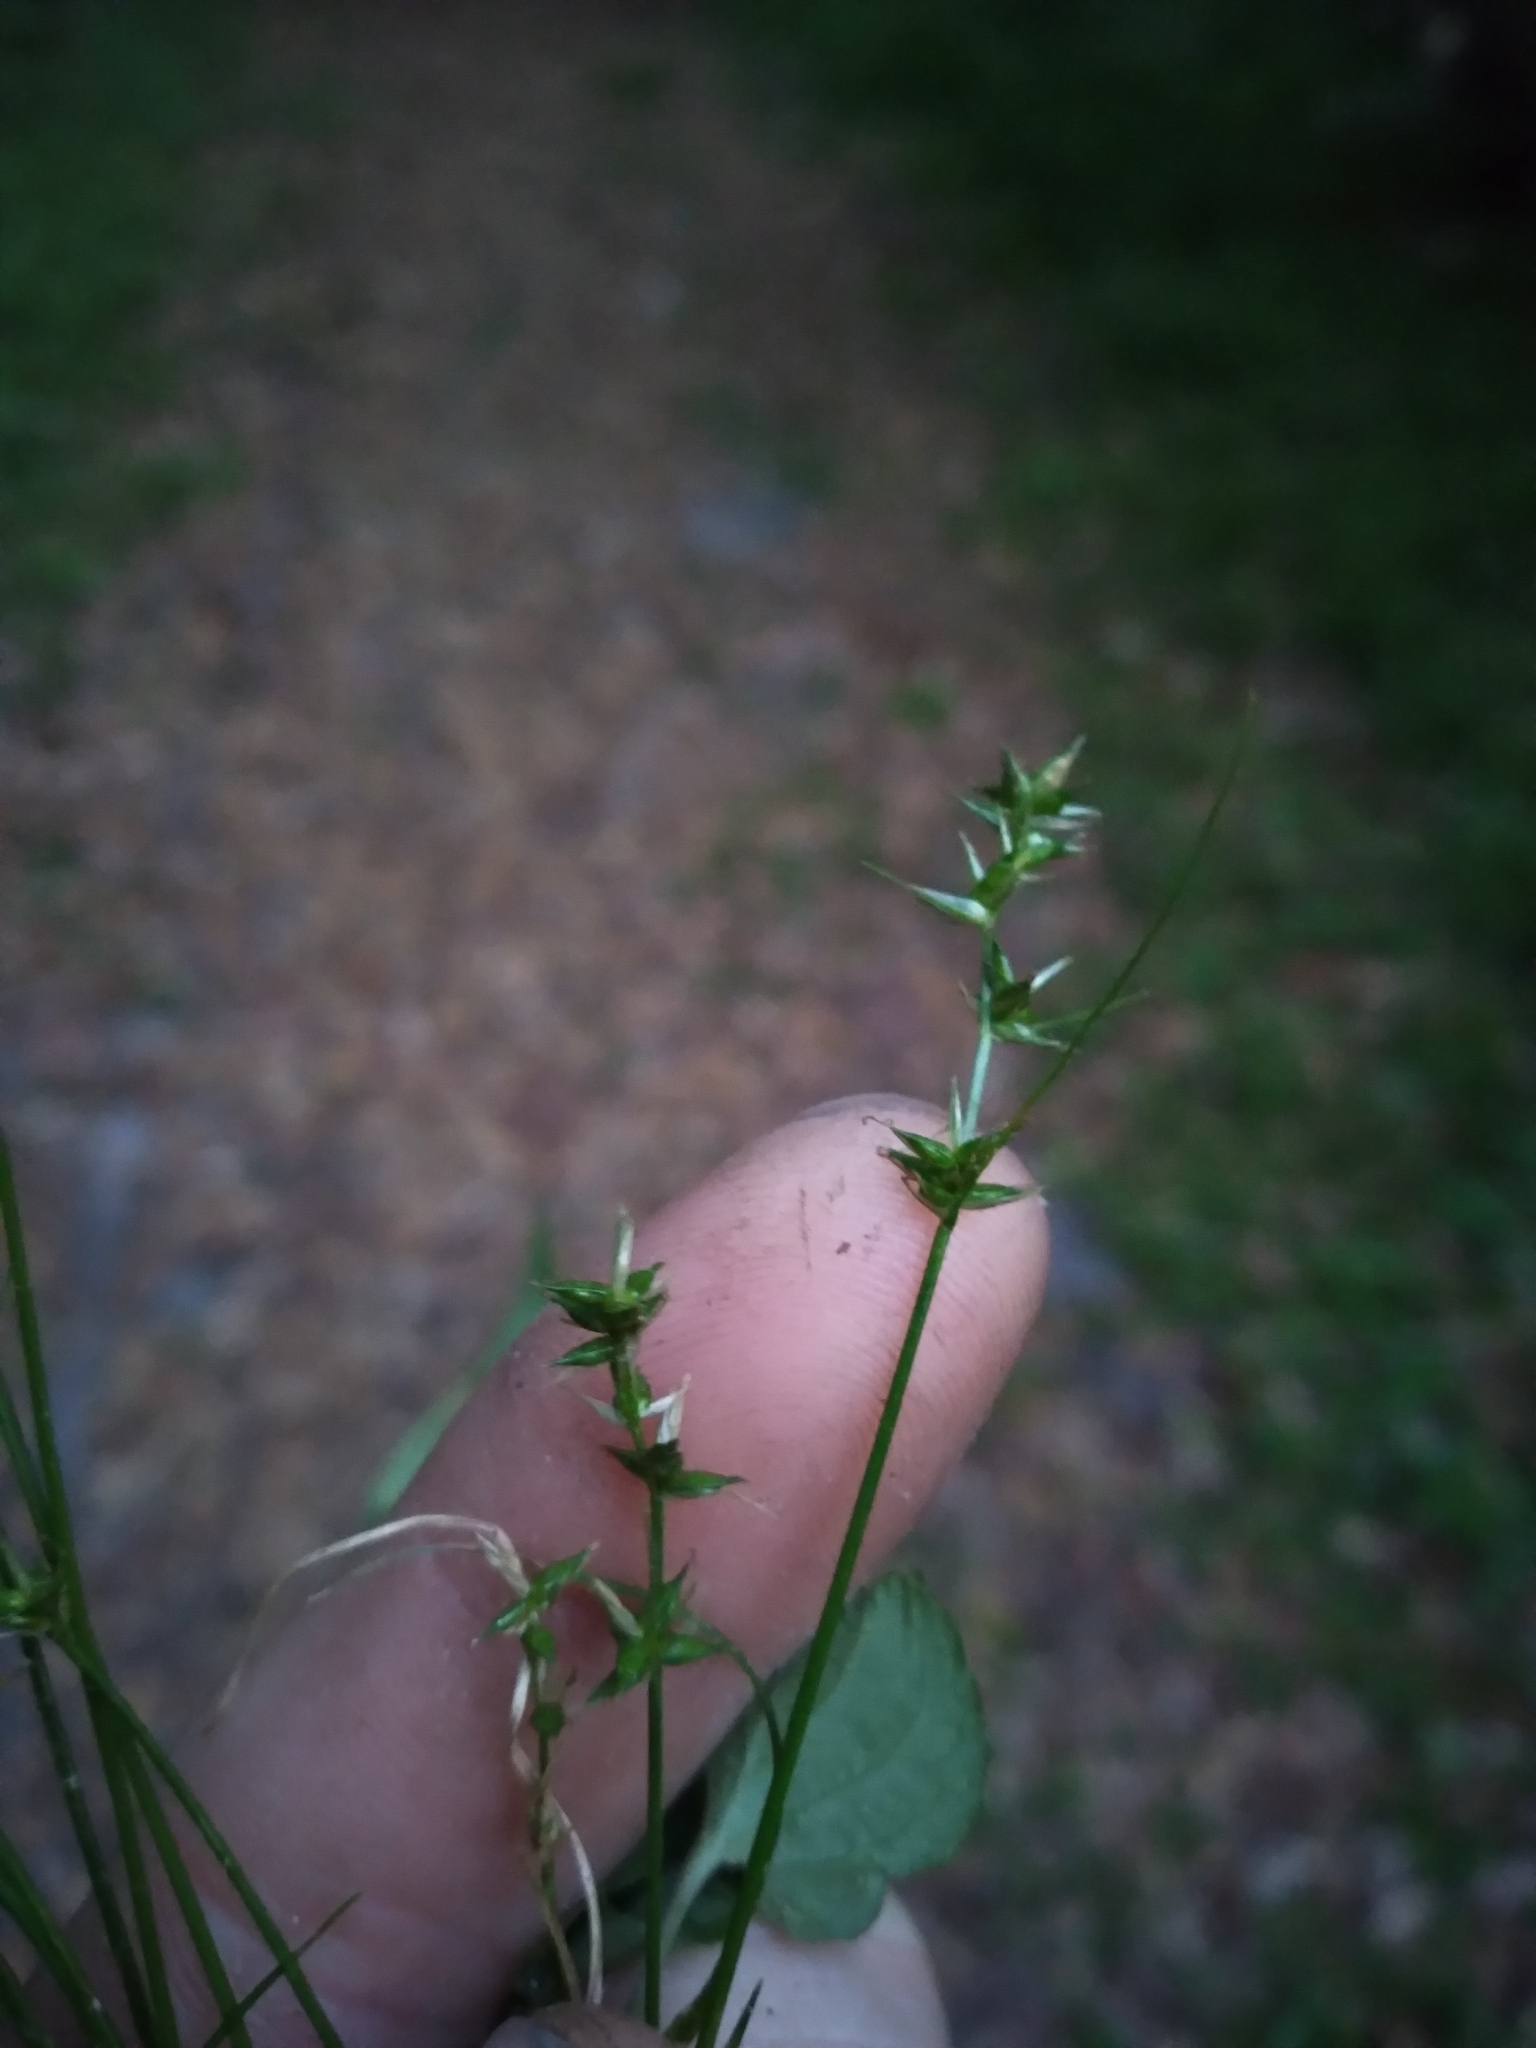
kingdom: Plantae
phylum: Tracheophyta
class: Liliopsida
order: Poales
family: Cyperaceae
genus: Carex
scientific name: Carex retroflexa
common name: Reflexed sedge
